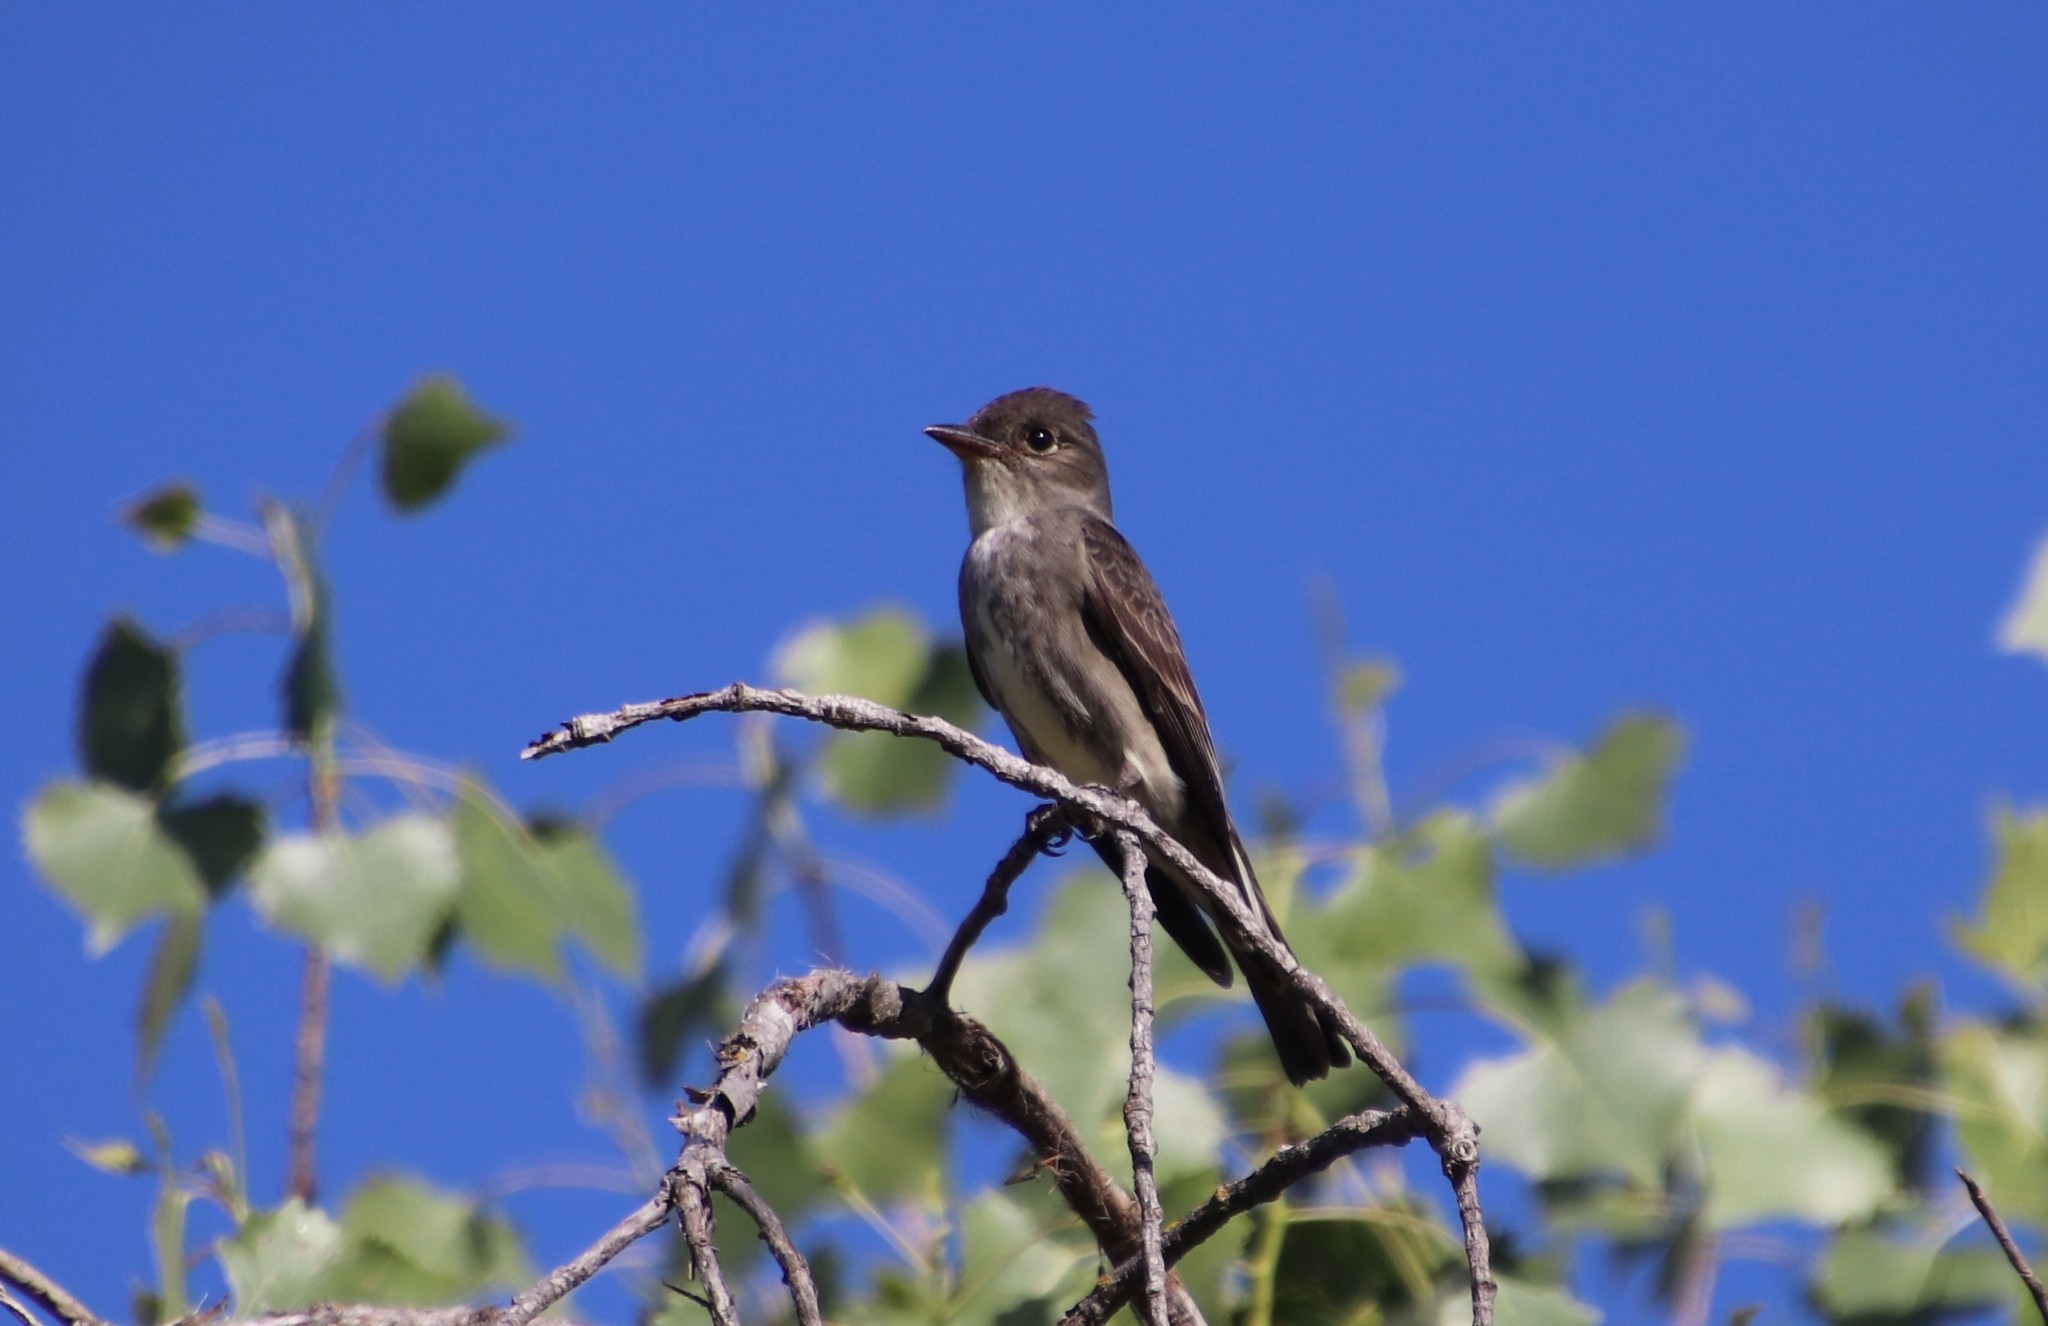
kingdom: Animalia
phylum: Chordata
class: Aves
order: Passeriformes
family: Tyrannidae
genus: Contopus
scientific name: Contopus cooperi
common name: Olive-sided flycatcher
